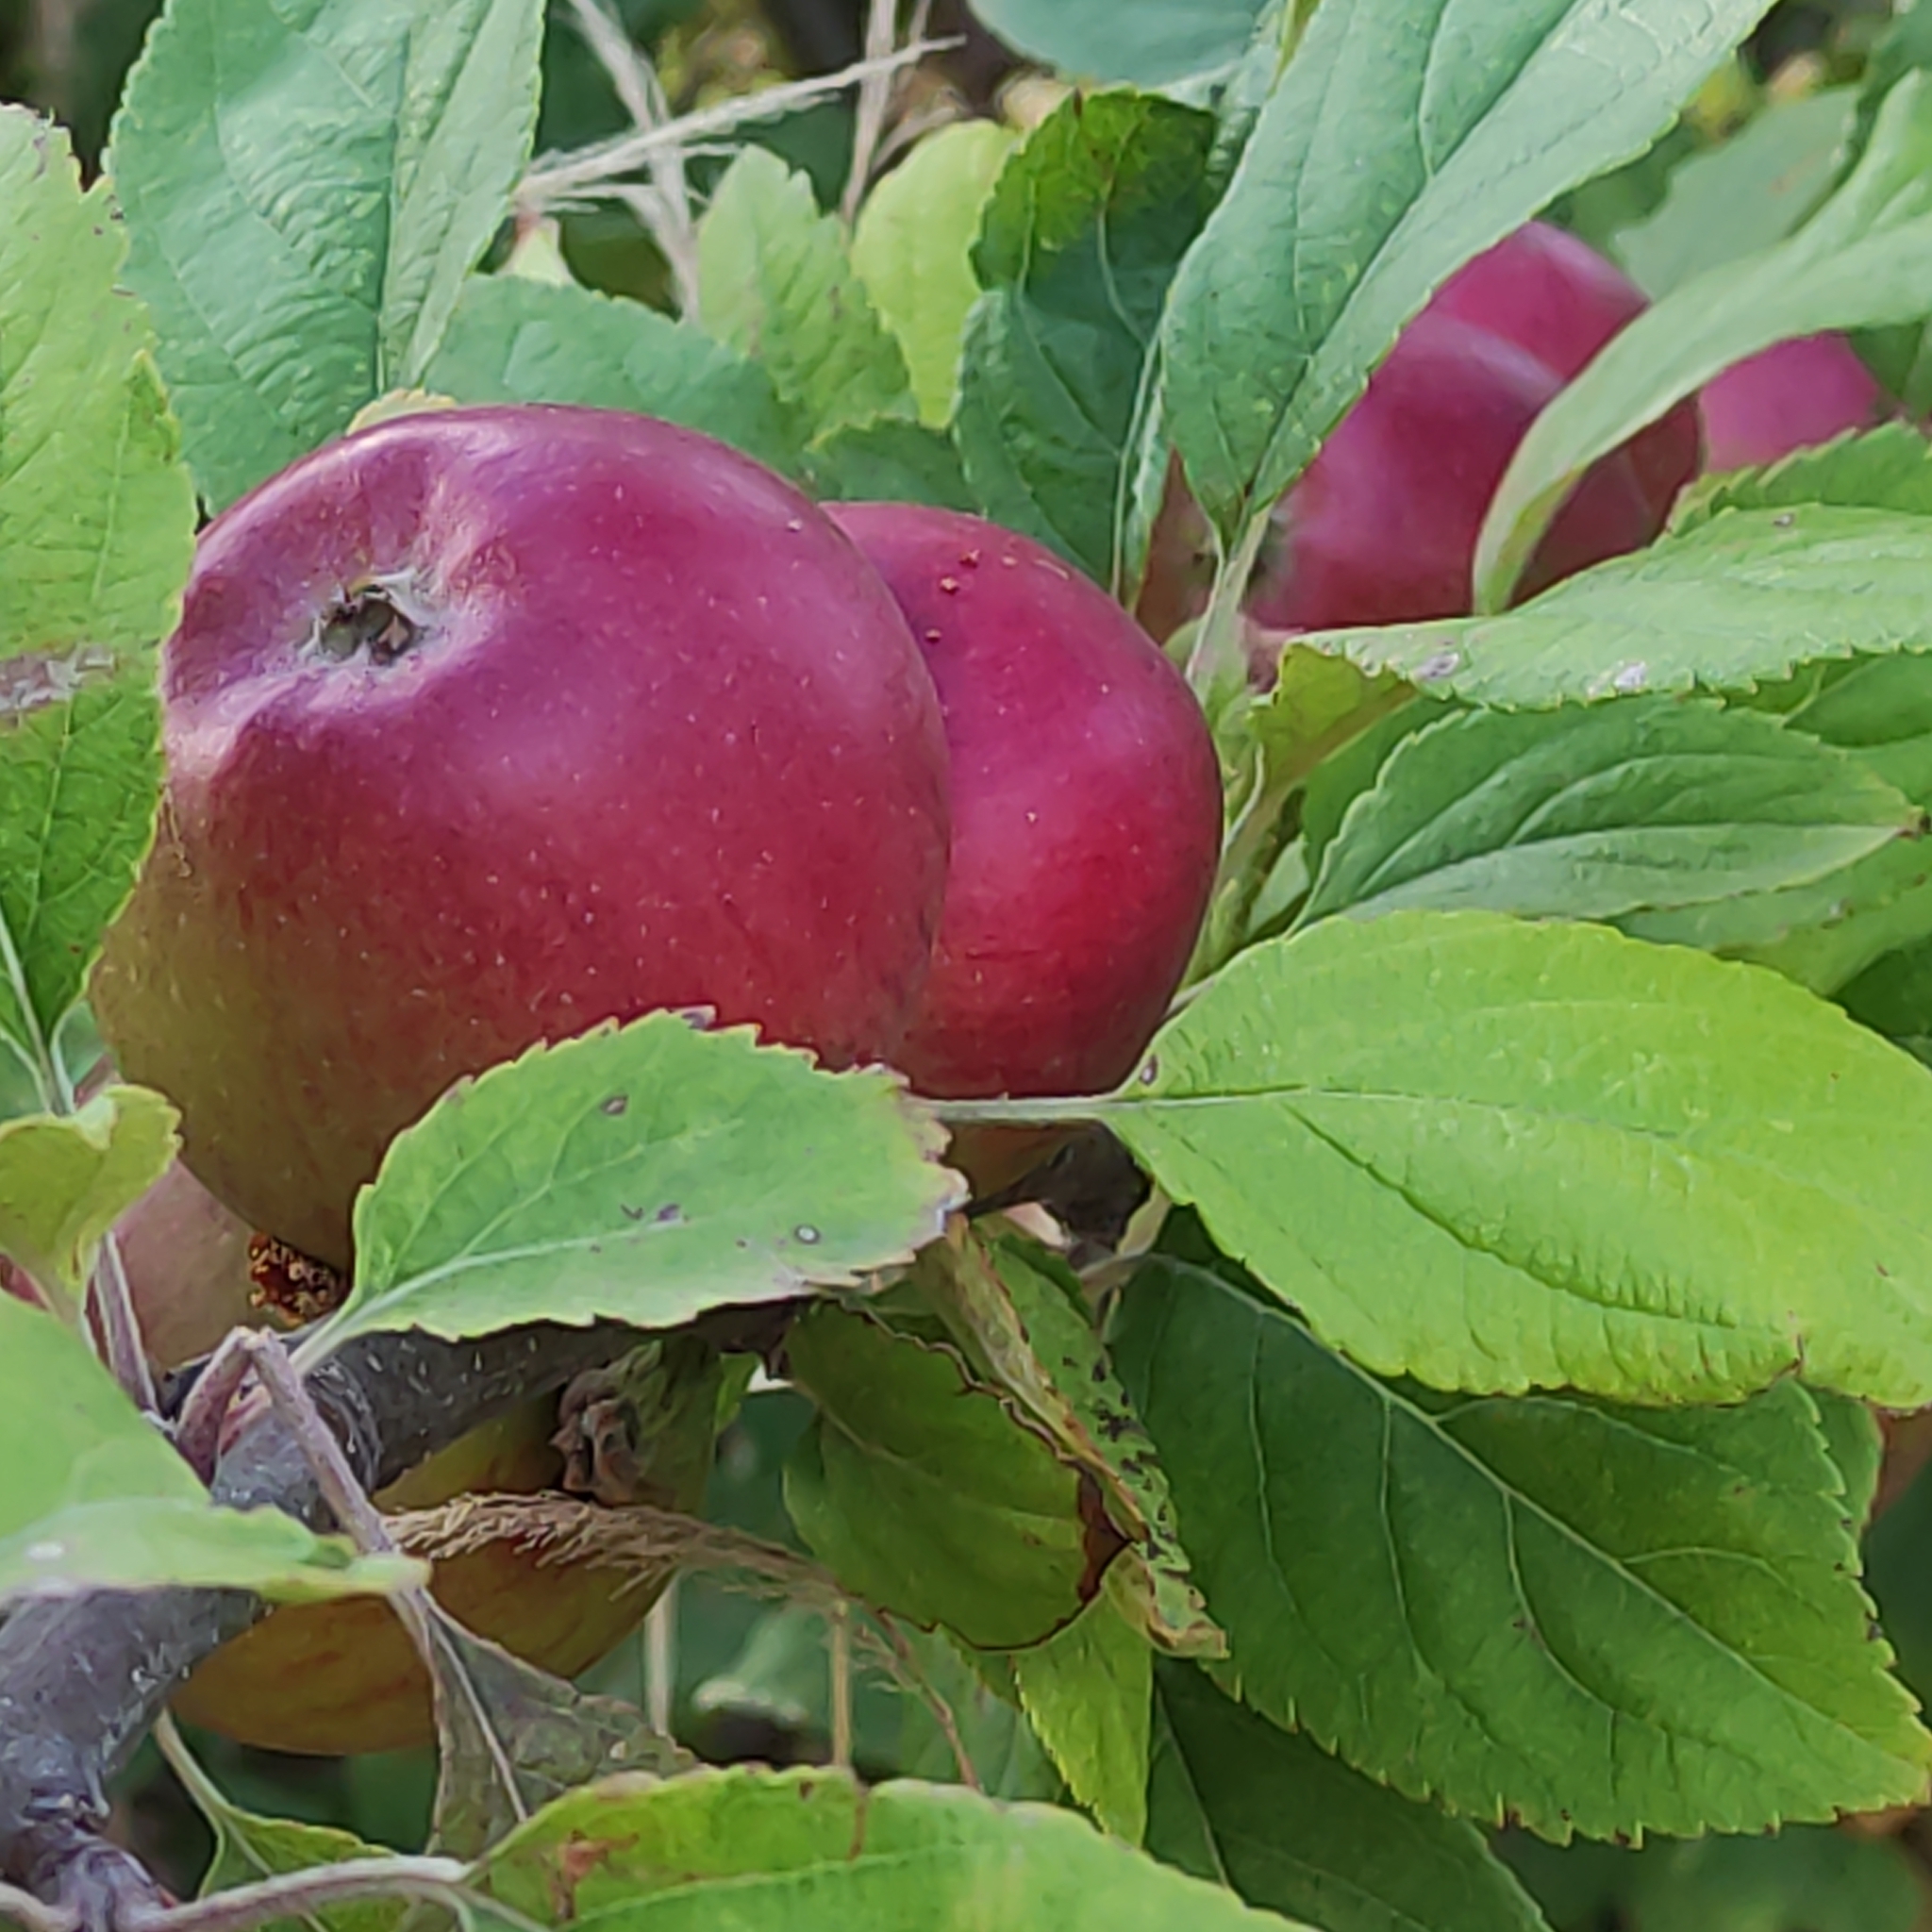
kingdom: Plantae
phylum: Tracheophyta
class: Magnoliopsida
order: Rosales
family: Rosaceae
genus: Malus
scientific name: Malus domestica
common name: Apple
